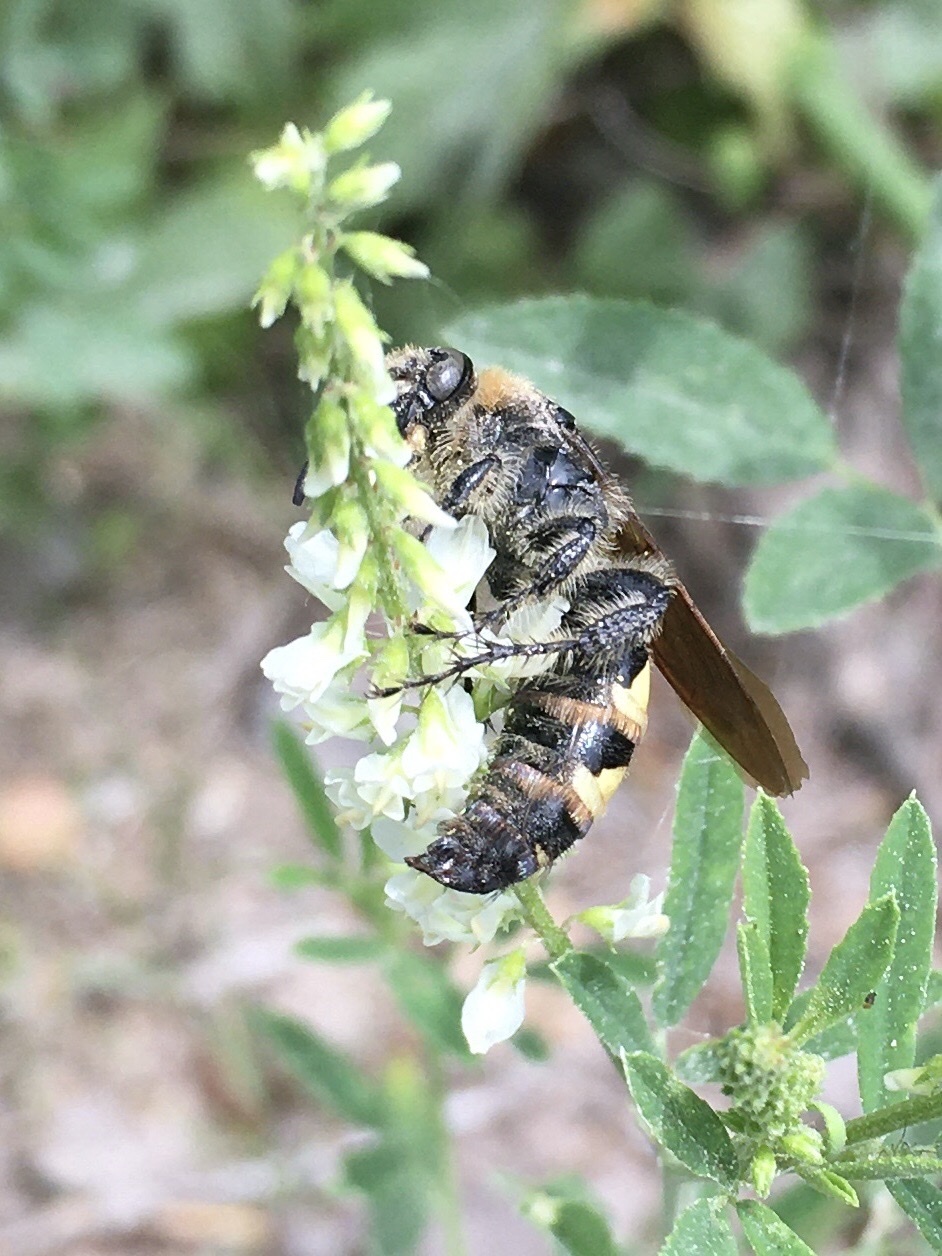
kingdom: Animalia
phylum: Arthropoda
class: Insecta
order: Hymenoptera
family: Scoliidae
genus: Dielis
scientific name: Dielis
